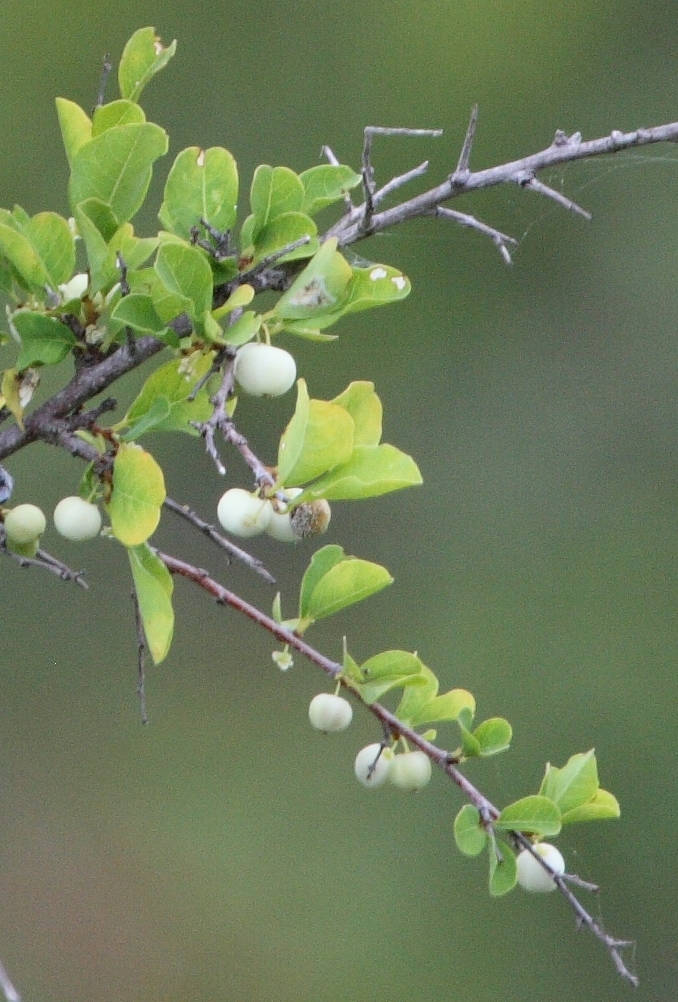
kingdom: Plantae
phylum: Tracheophyta
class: Magnoliopsida
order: Malpighiales
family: Phyllanthaceae
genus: Flueggea
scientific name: Flueggea virosa
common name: Common bushweed
